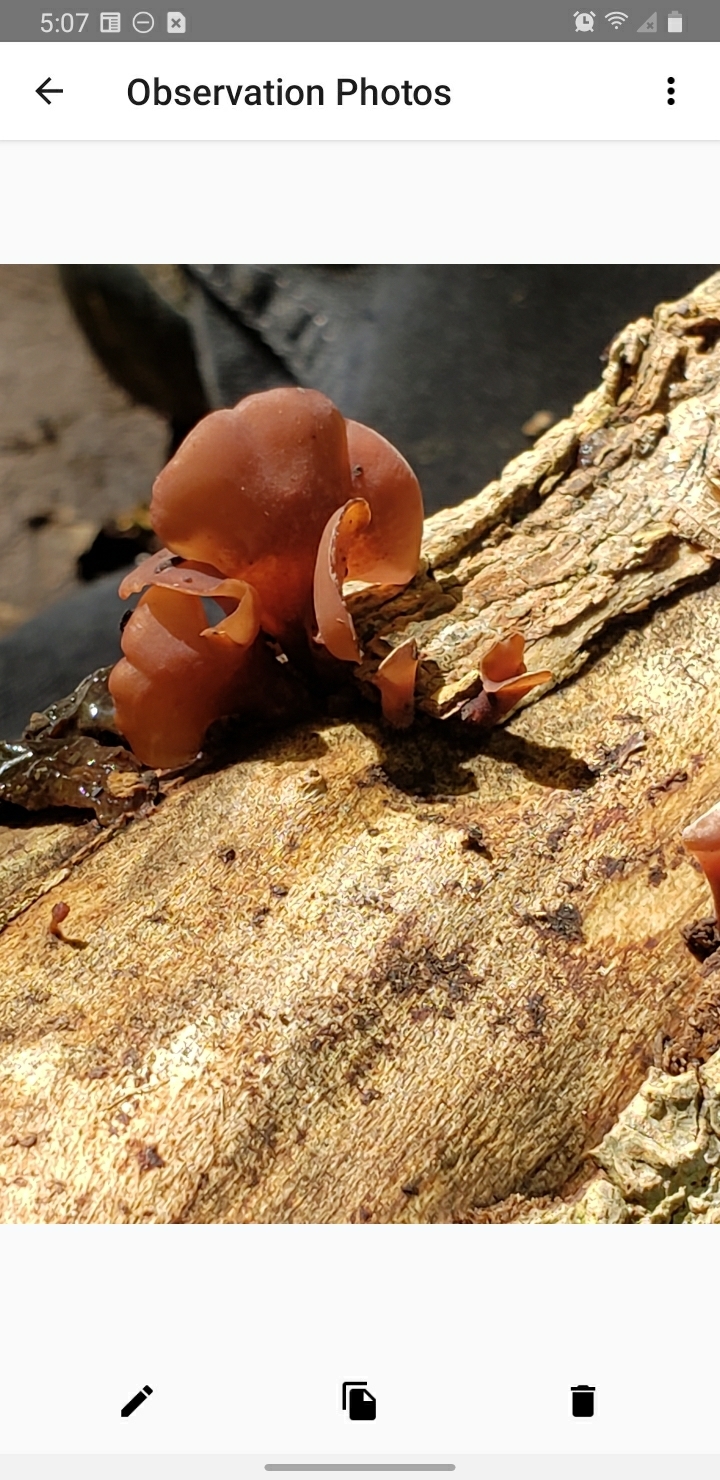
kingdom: Fungi
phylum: Basidiomycota
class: Dacrymycetes
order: Dacrymycetales
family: Dacrymycetaceae
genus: Dacryopinax
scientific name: Dacryopinax elegans
